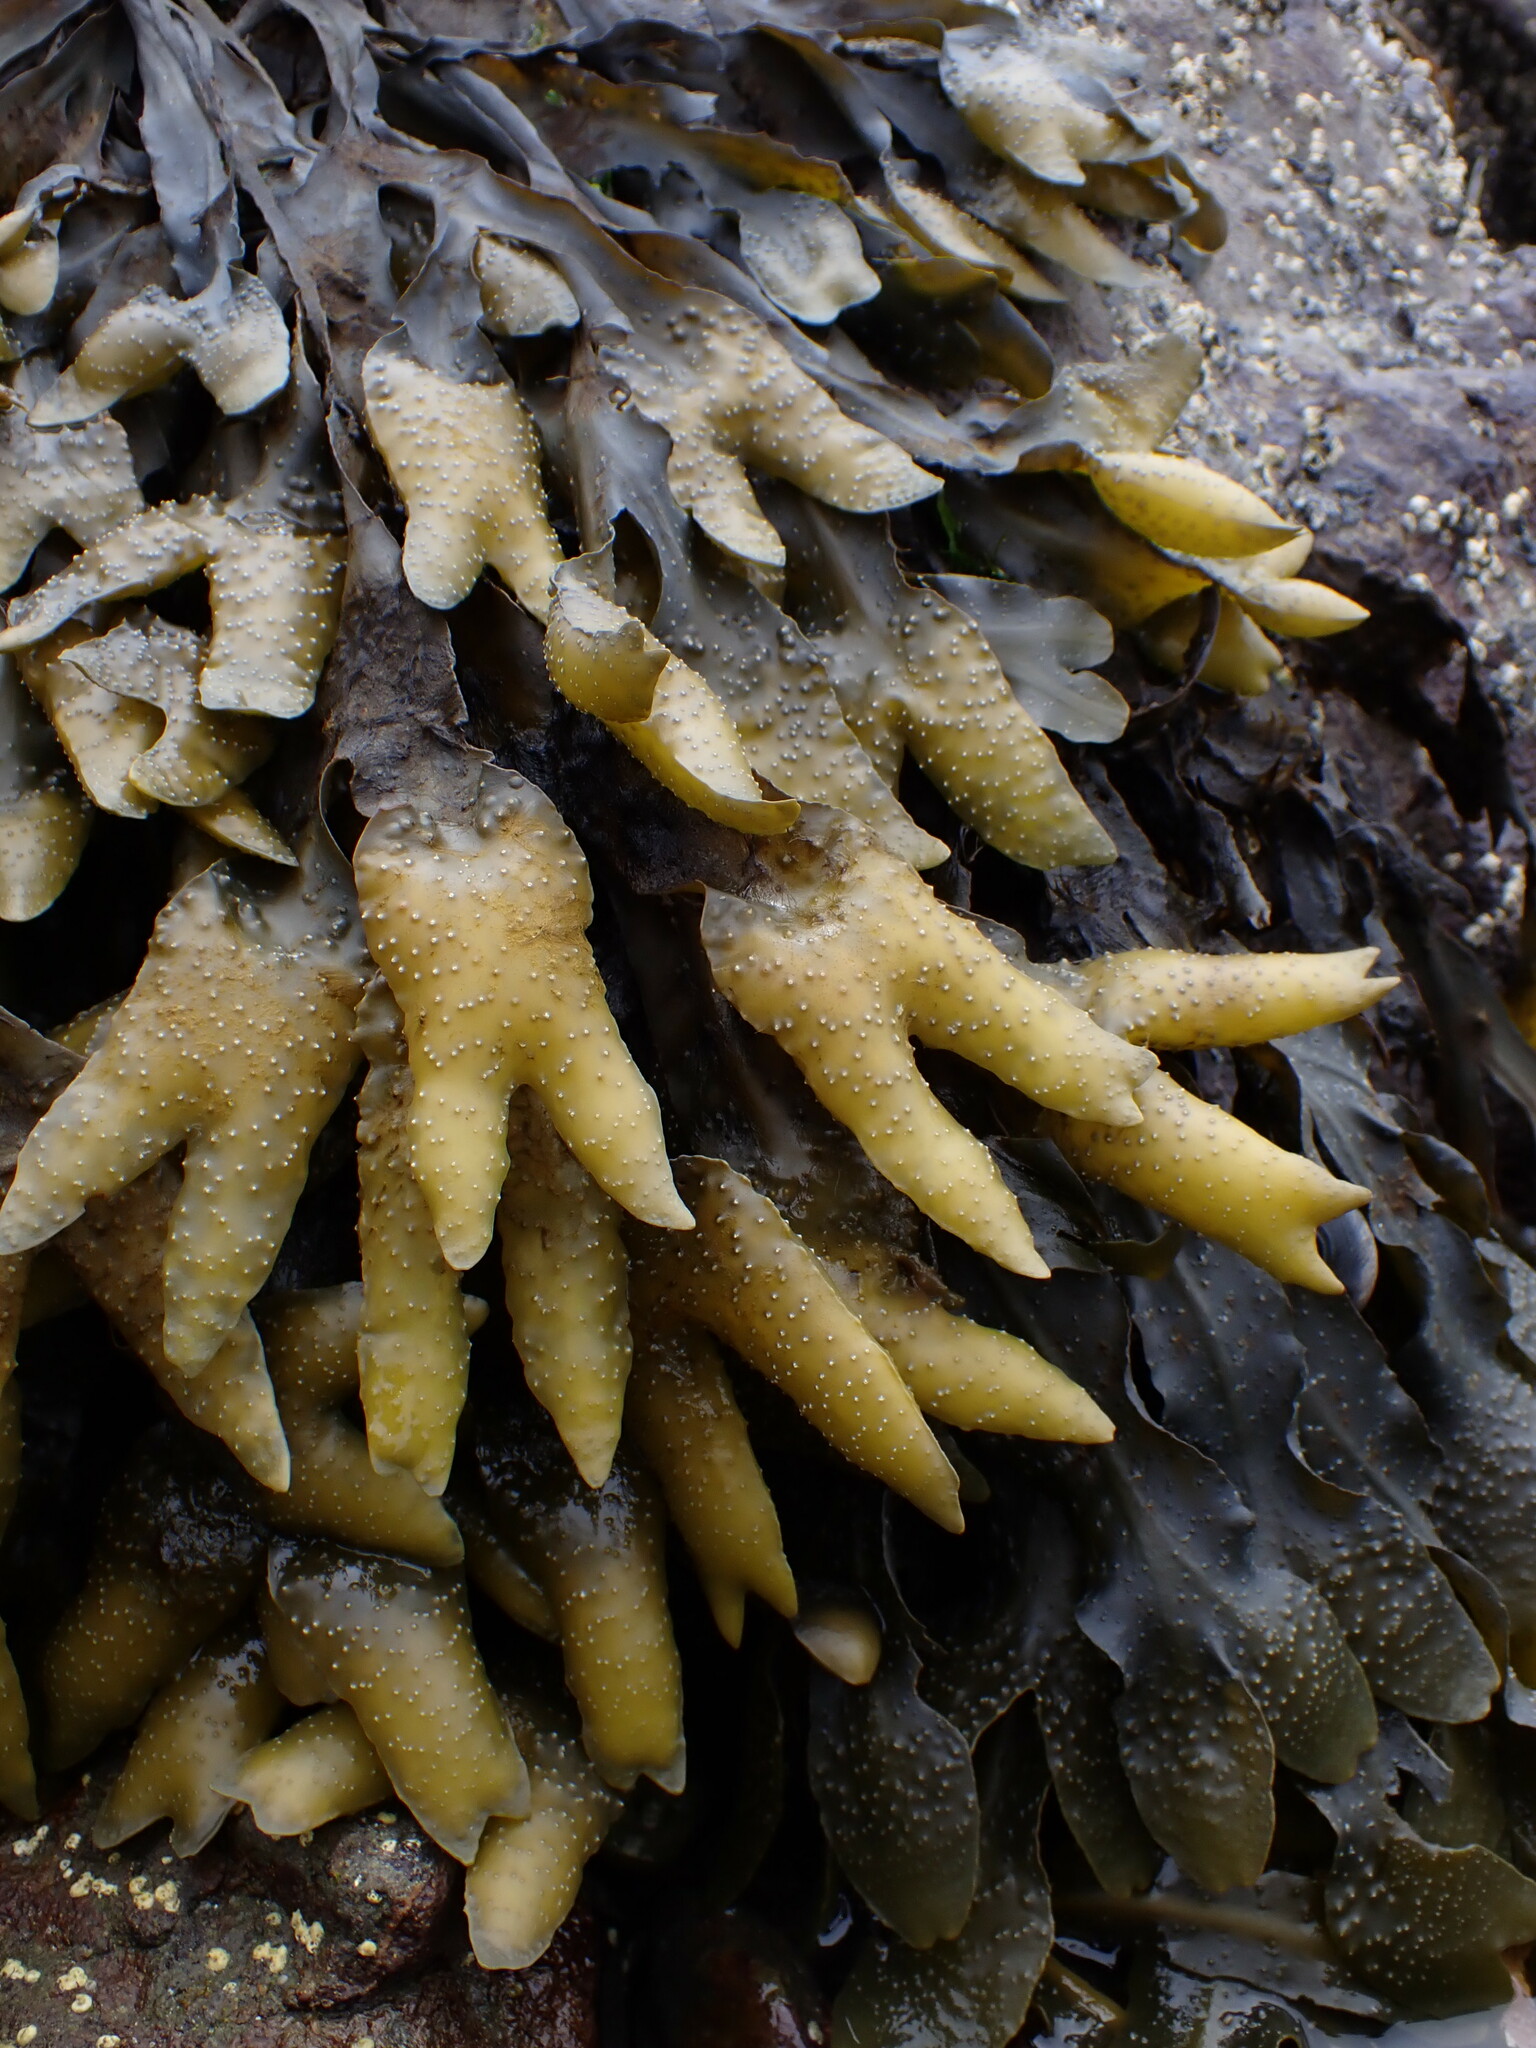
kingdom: Chromista
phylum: Ochrophyta
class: Phaeophyceae
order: Fucales
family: Fucaceae
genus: Fucus
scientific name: Fucus distichus
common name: Rockweed
